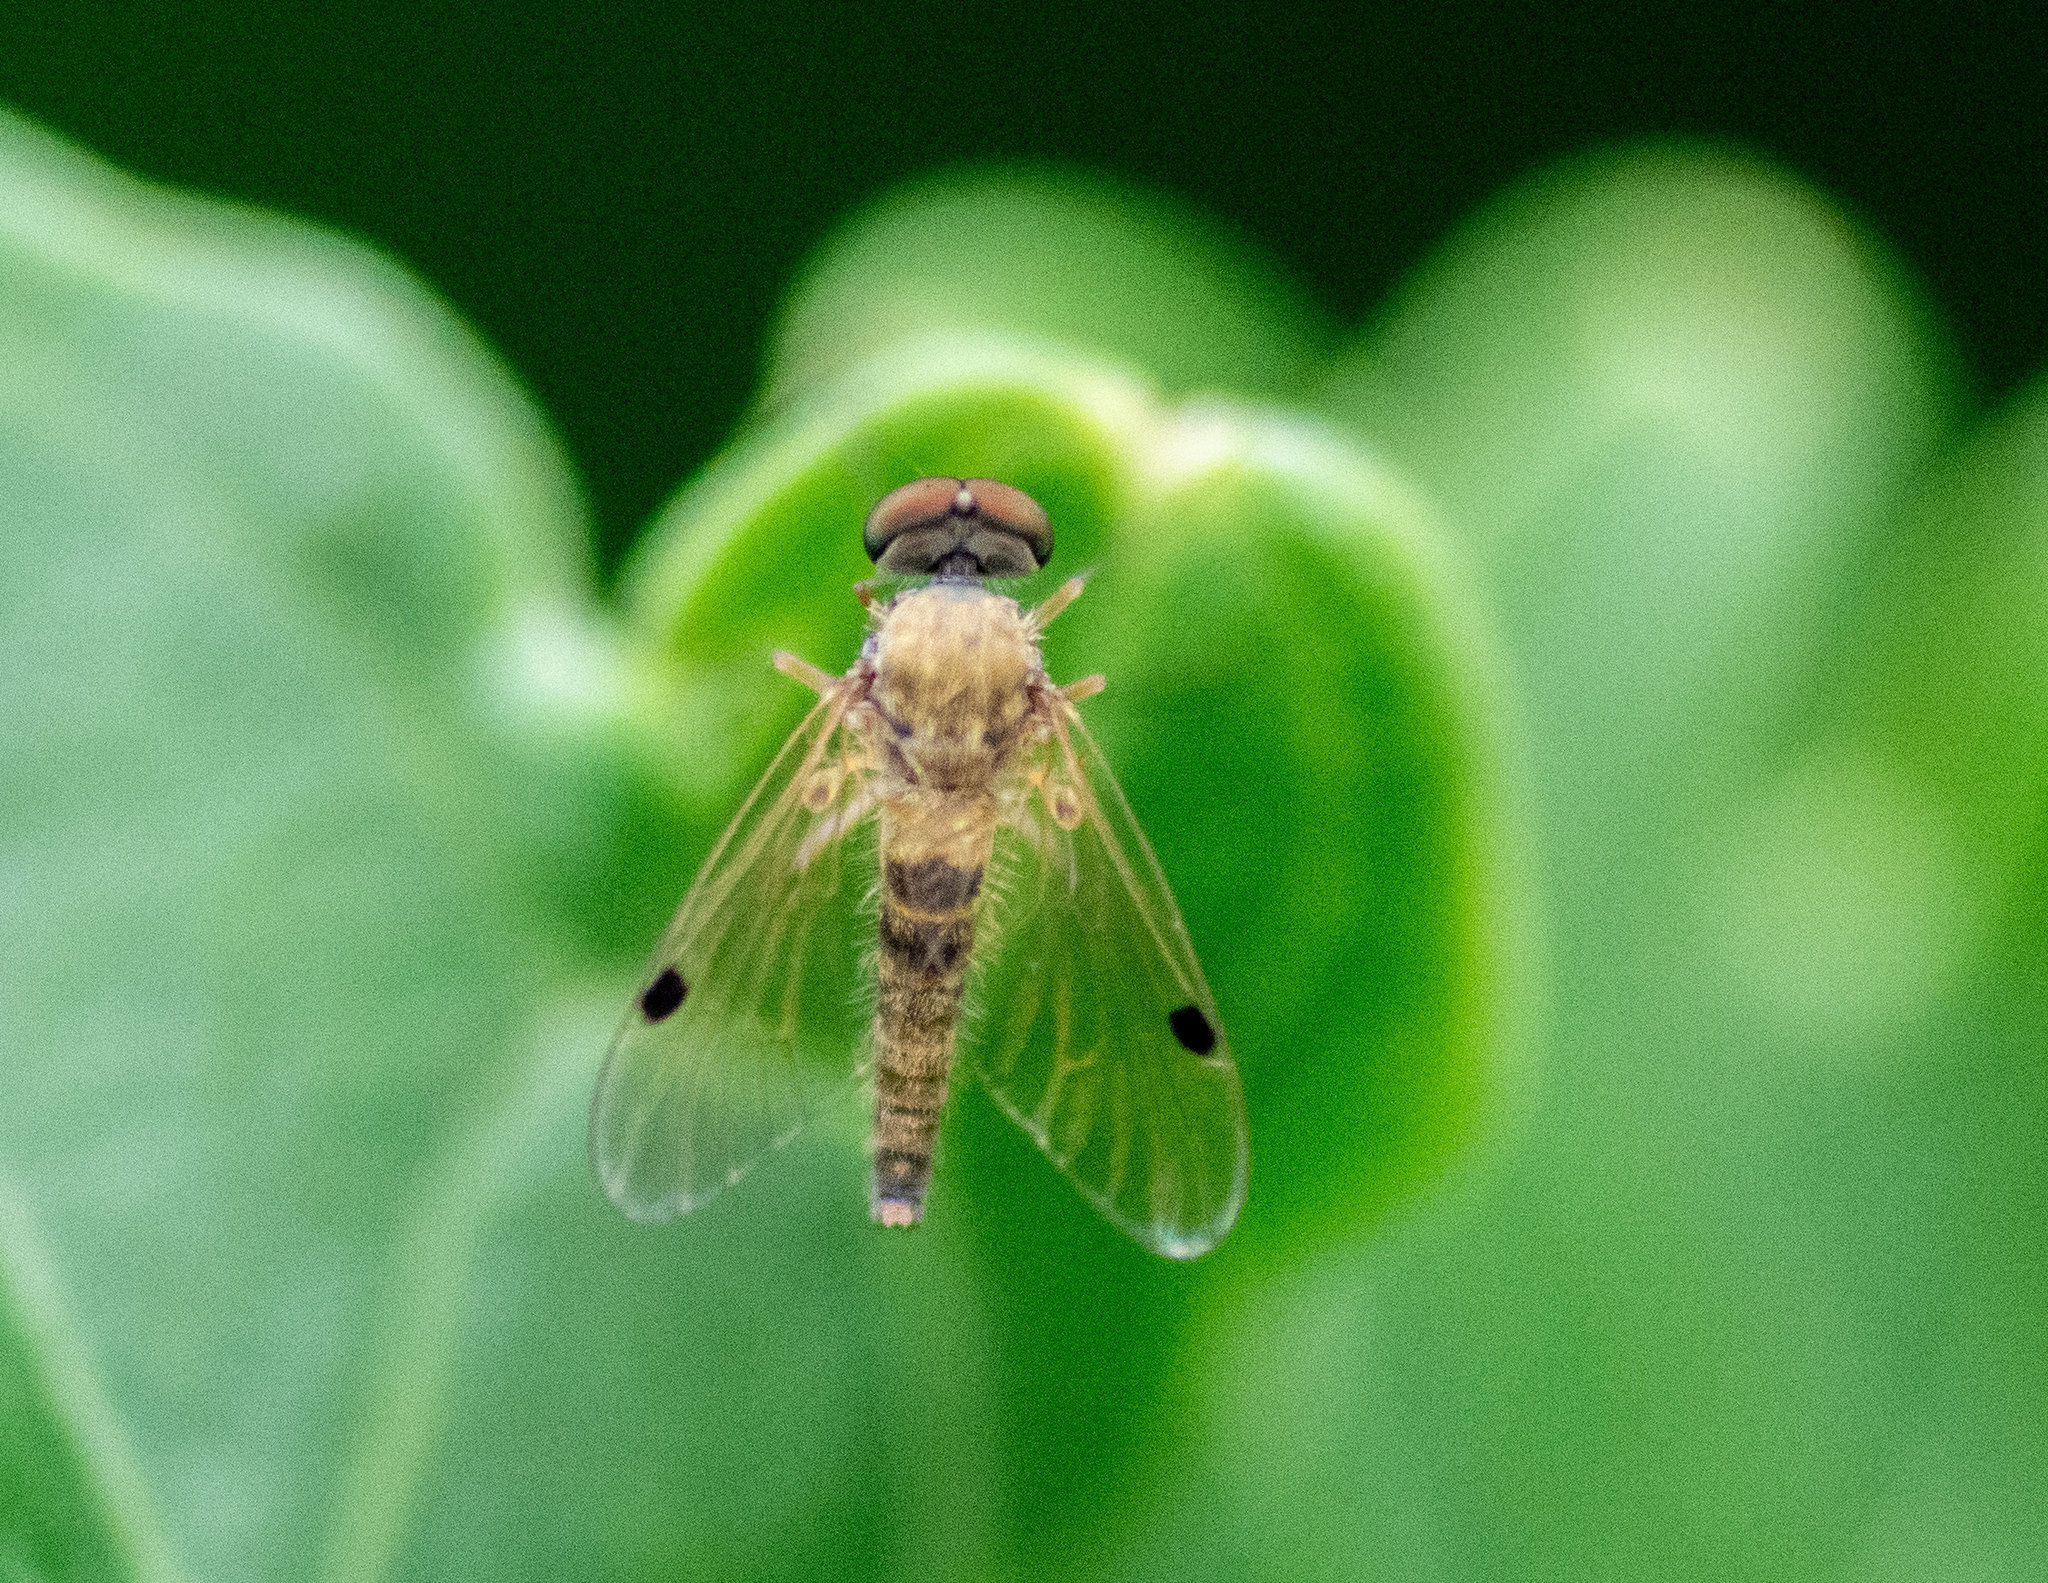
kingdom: Animalia
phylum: Arthropoda
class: Insecta
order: Diptera
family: Rhagionidae
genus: Chrysopilus
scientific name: Chrysopilus modestus
